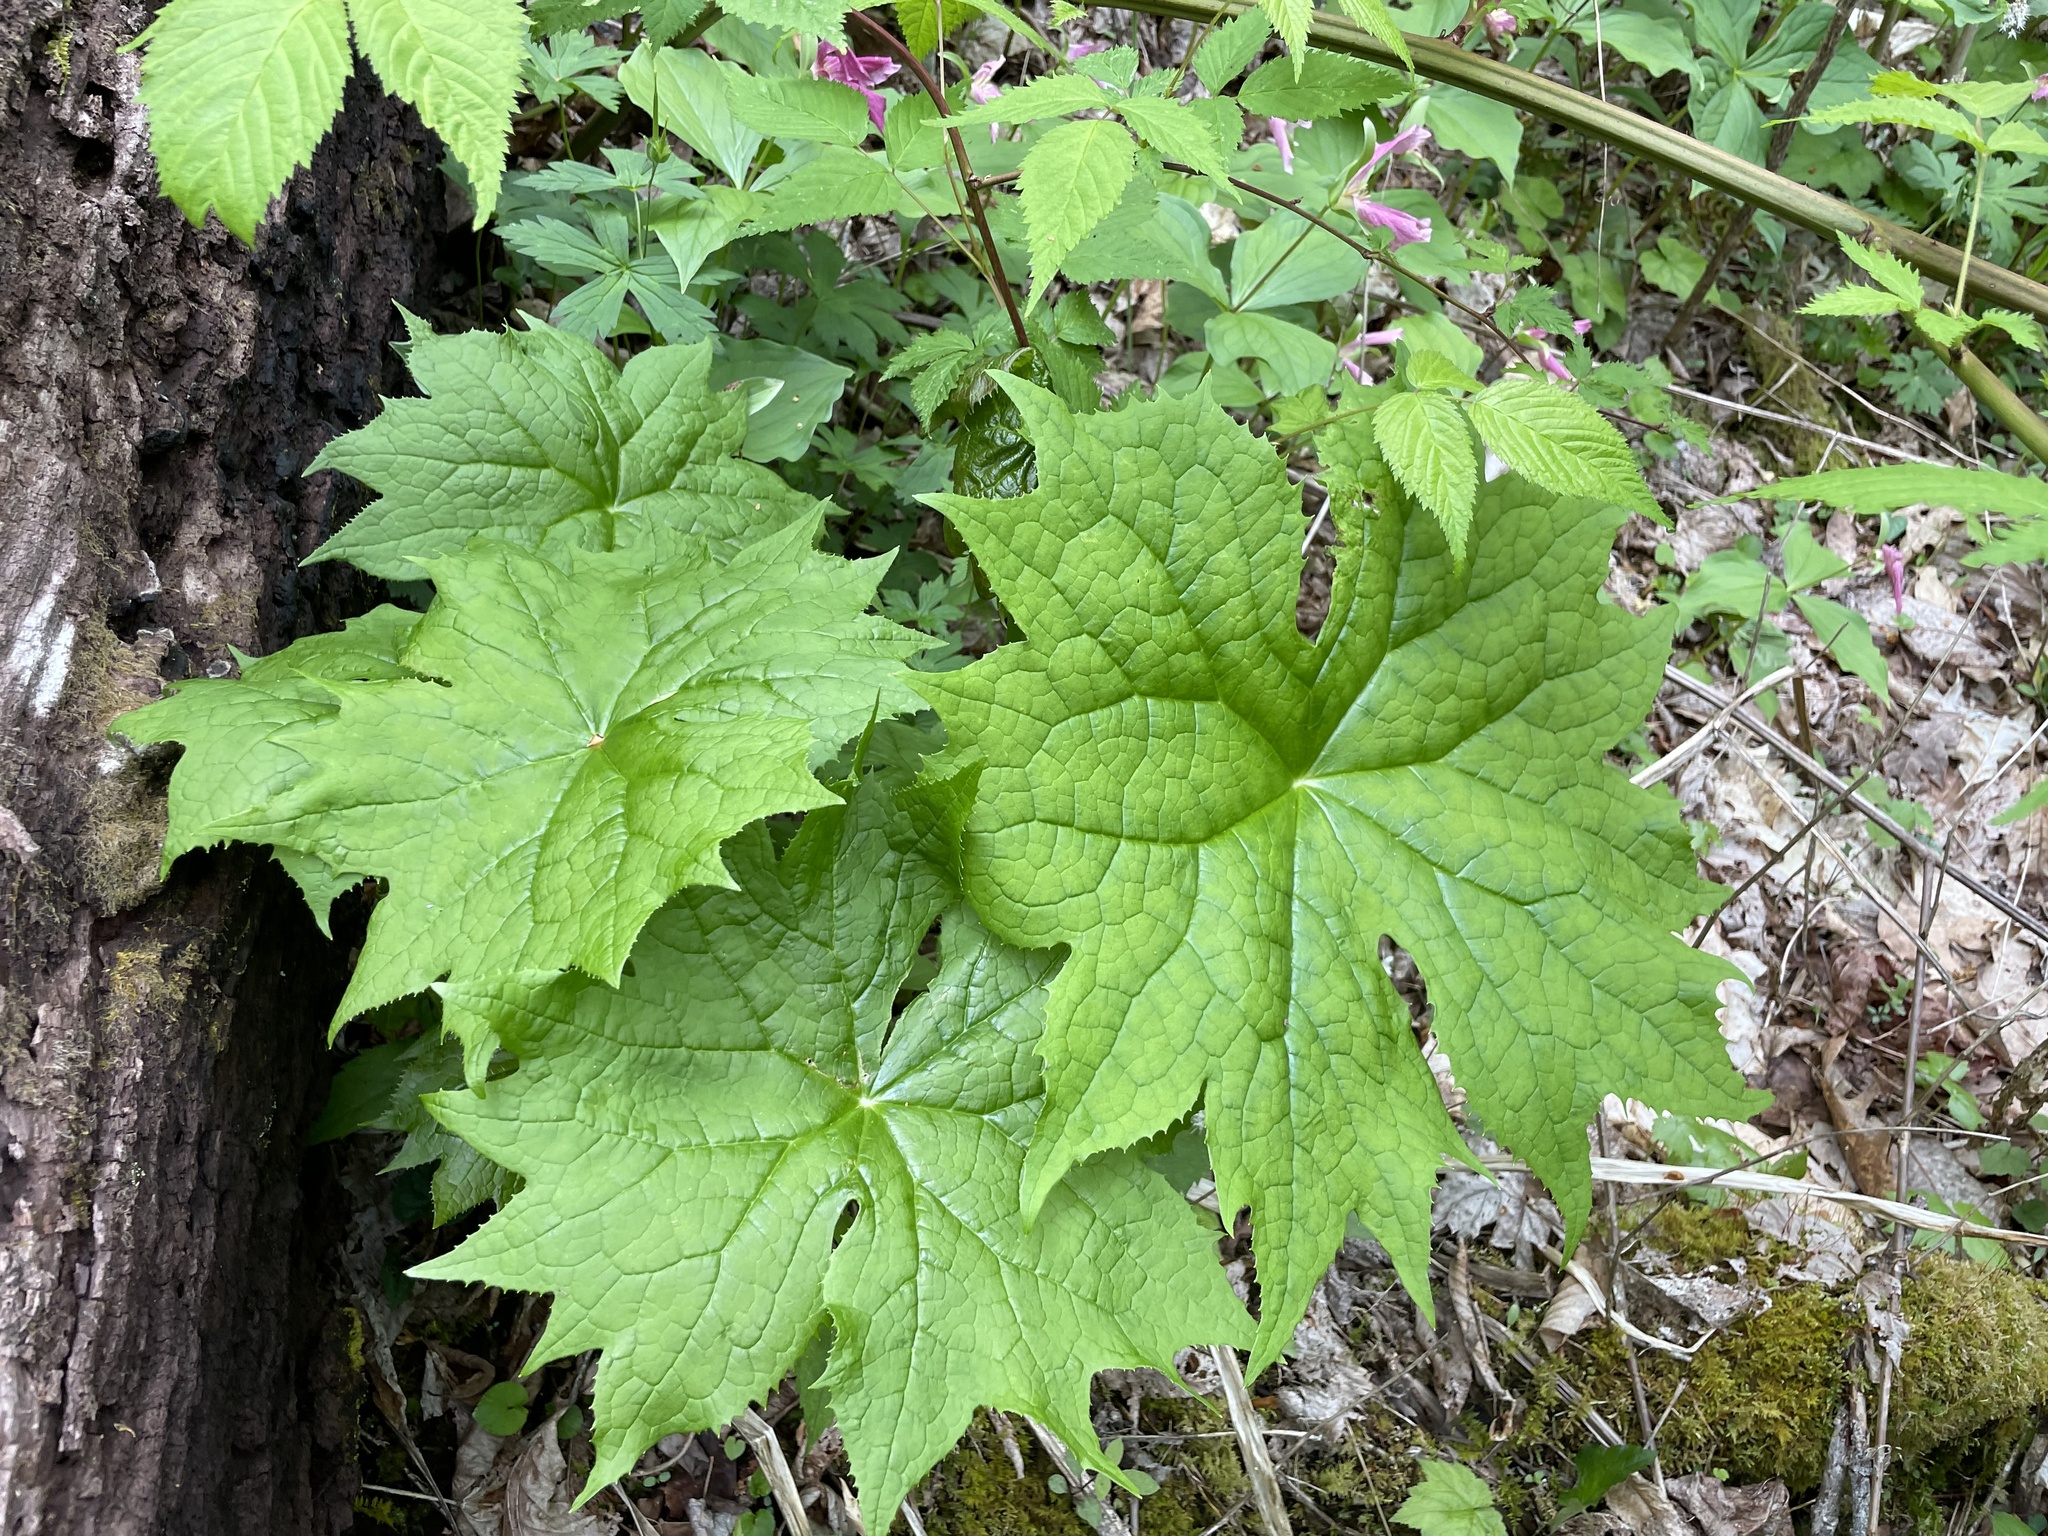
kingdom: Plantae
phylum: Tracheophyta
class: Magnoliopsida
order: Ranunculales
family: Berberidaceae
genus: Diphylleia
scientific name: Diphylleia cymosa
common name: Umbrella-leaf
